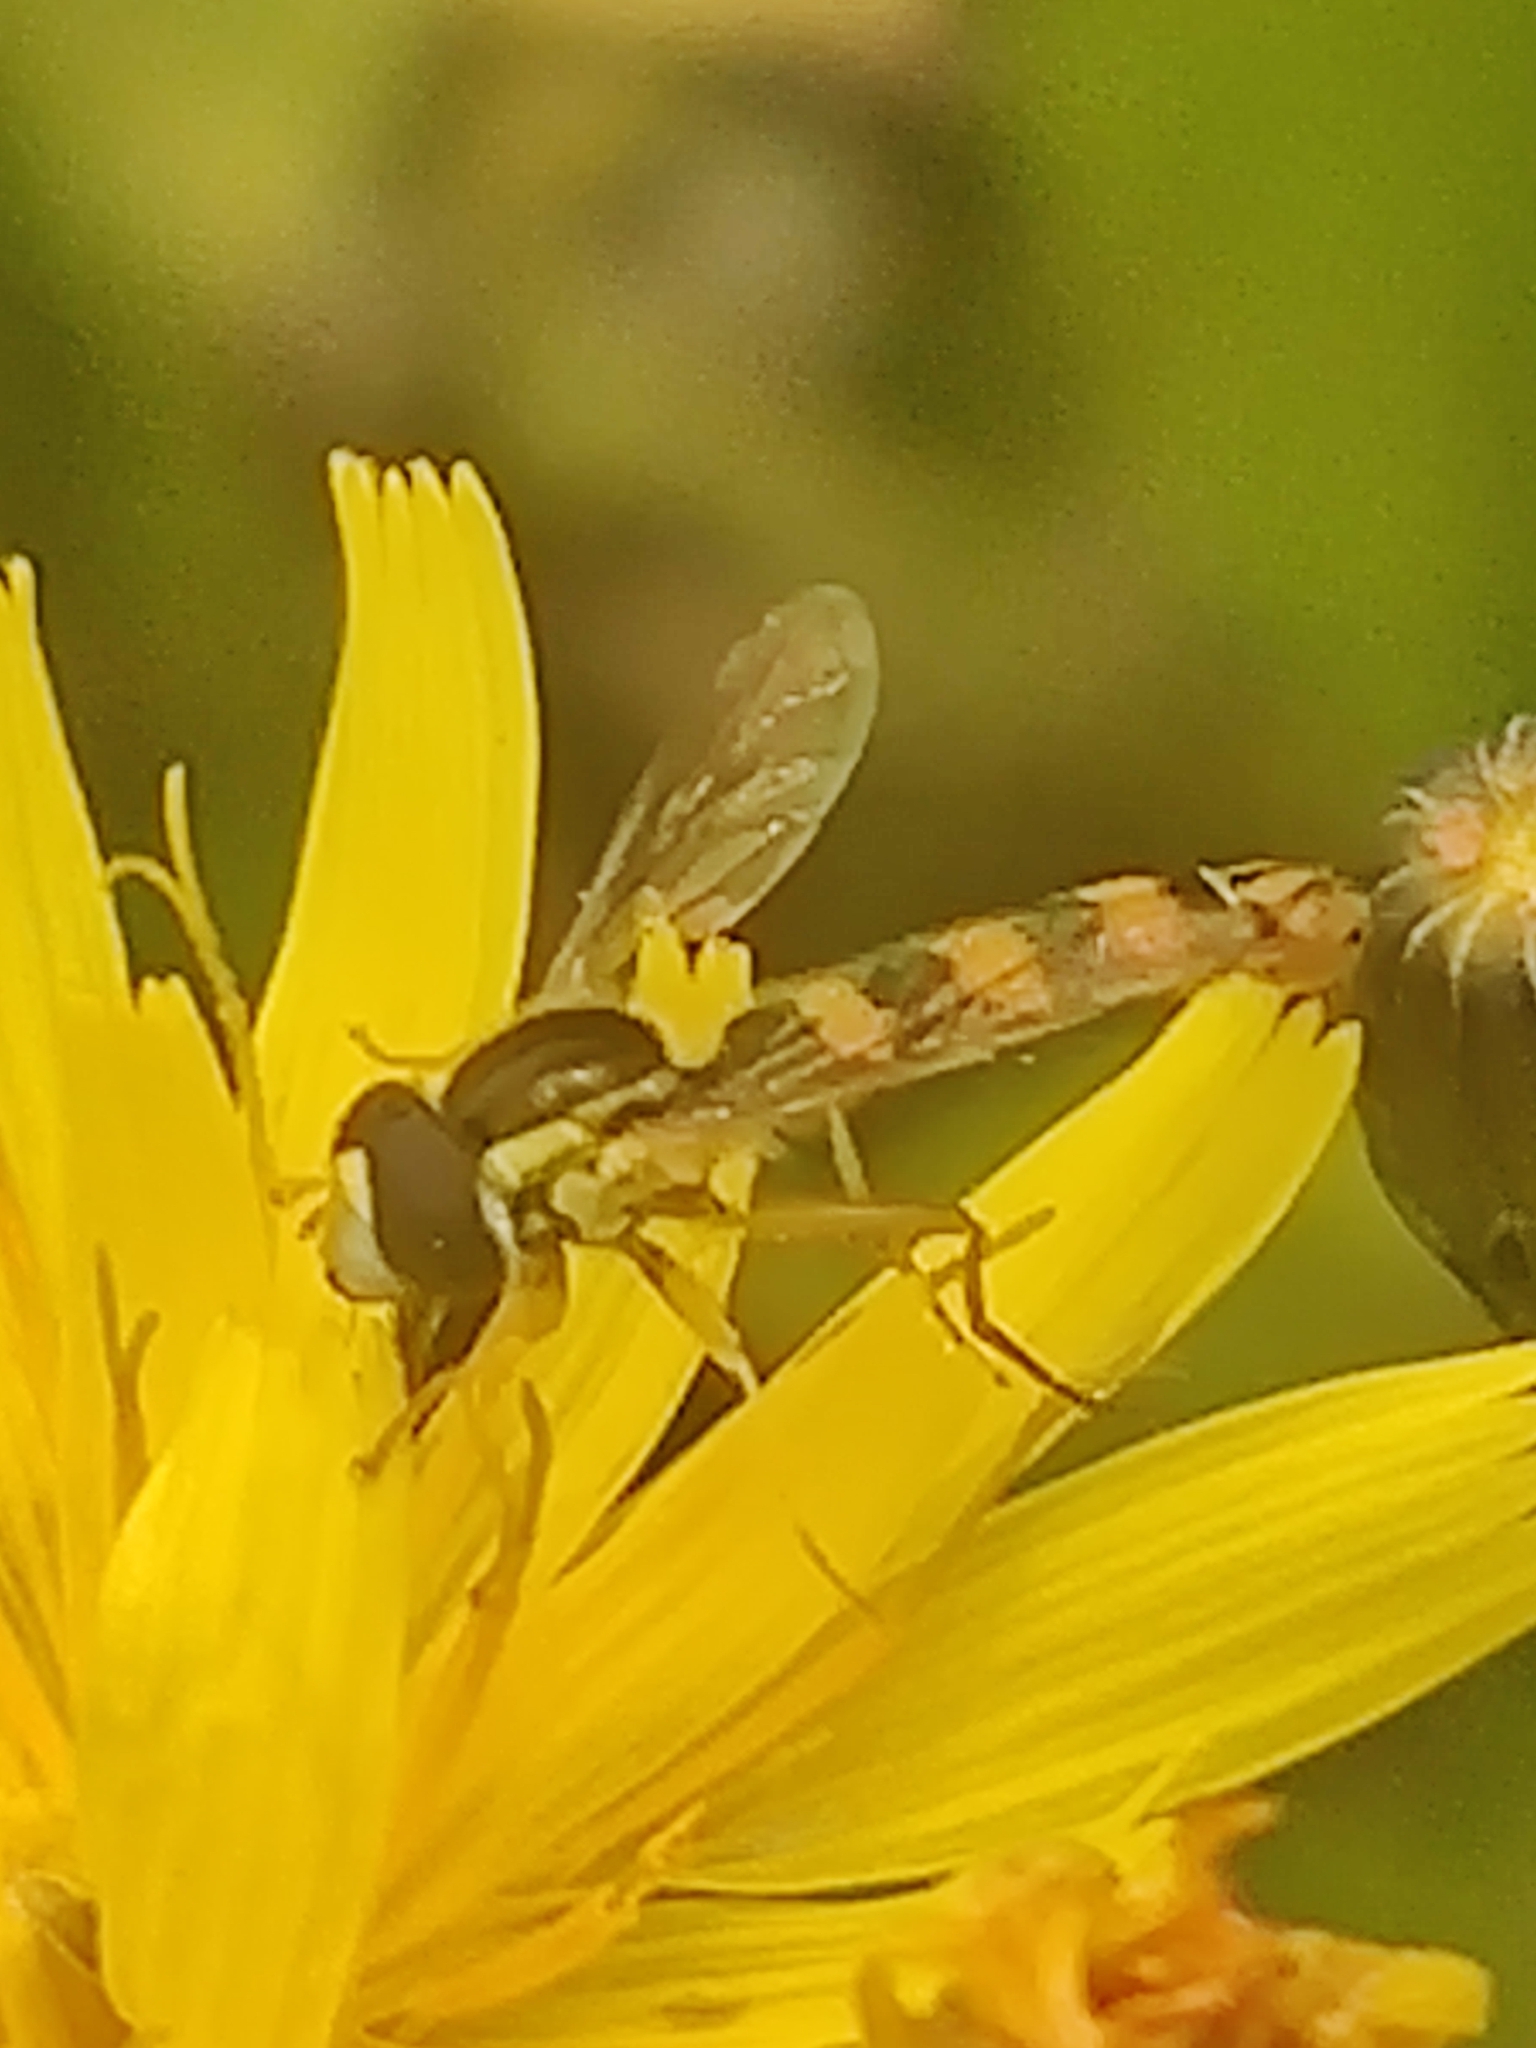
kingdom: Animalia
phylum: Arthropoda
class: Insecta
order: Diptera
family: Syrphidae
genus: Sphaerophoria
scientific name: Sphaerophoria scripta
